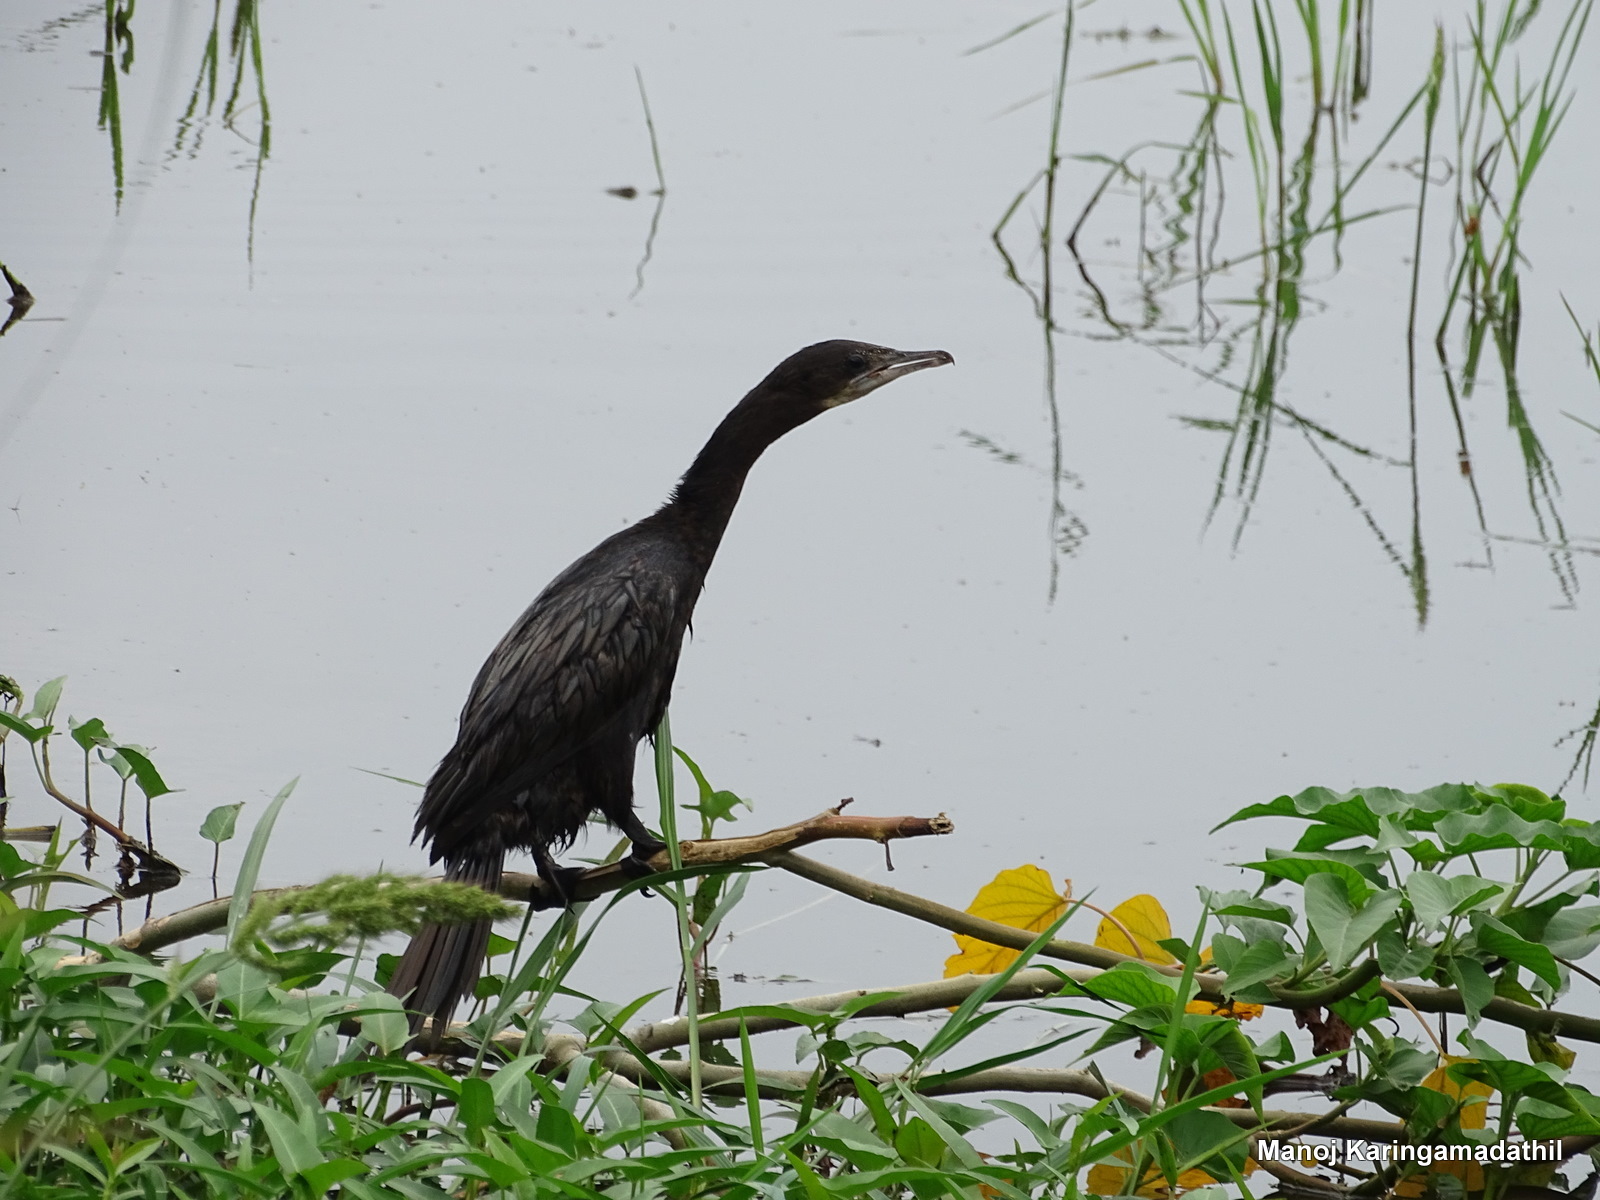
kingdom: Animalia
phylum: Chordata
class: Aves
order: Suliformes
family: Phalacrocoracidae
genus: Microcarbo
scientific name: Microcarbo niger
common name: Little cormorant
